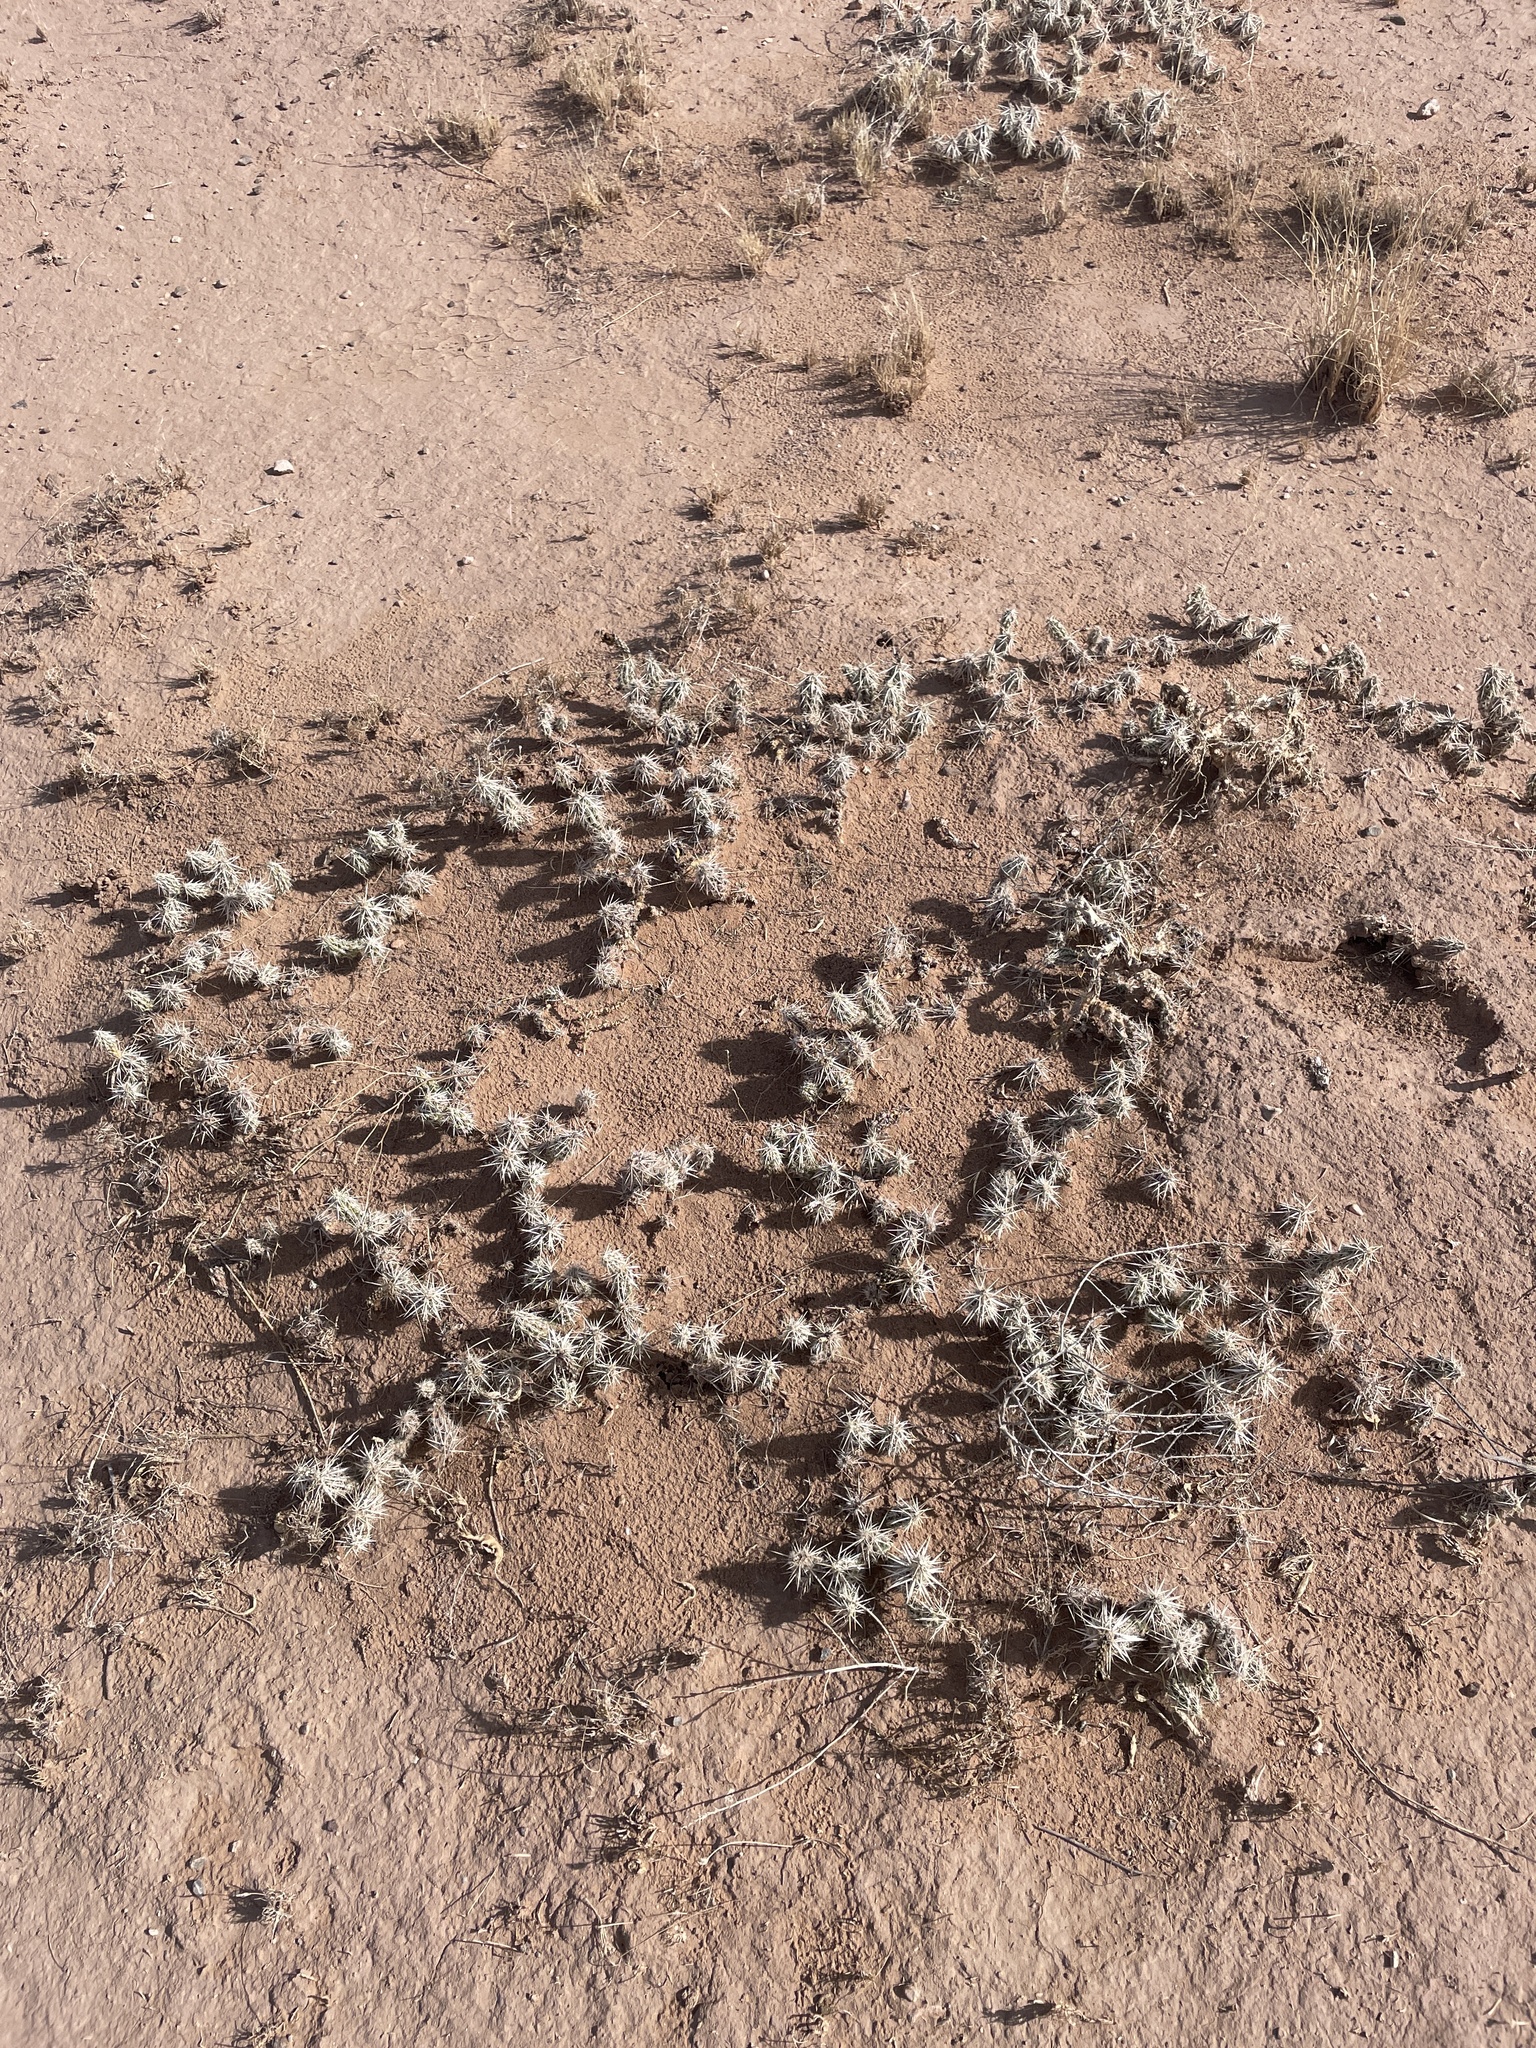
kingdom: Plantae
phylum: Tracheophyta
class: Magnoliopsida
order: Caryophyllales
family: Cactaceae
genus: Grusonia
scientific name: Grusonia clavata
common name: Club cholla
